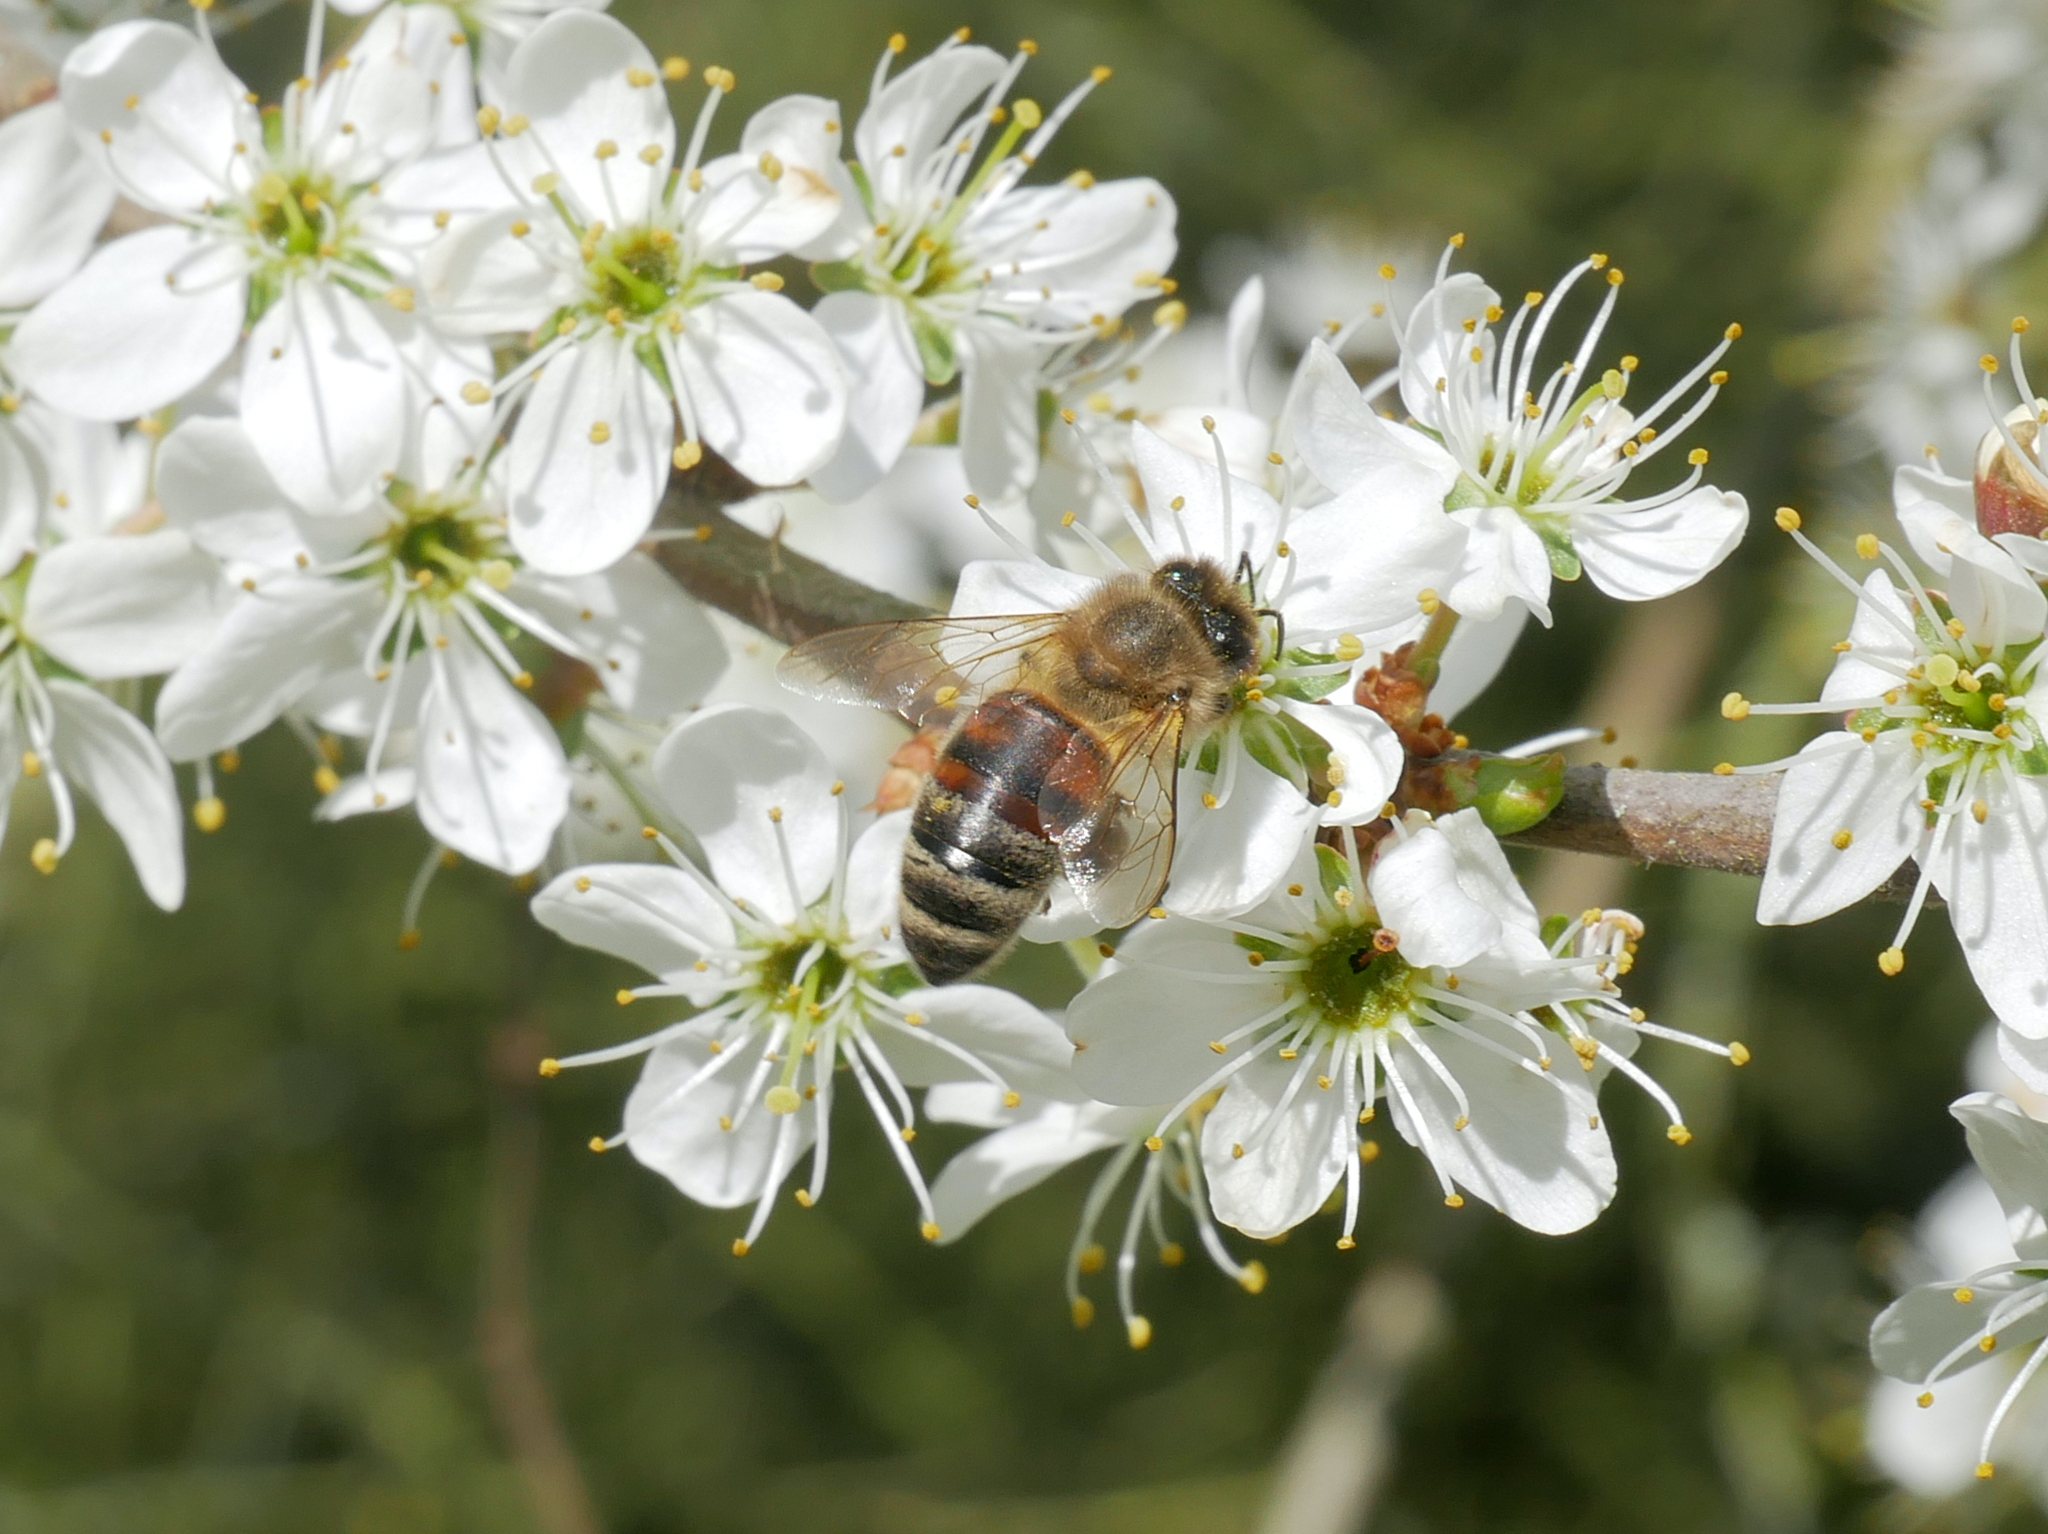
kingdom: Animalia
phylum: Arthropoda
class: Insecta
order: Hymenoptera
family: Apidae
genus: Apis
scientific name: Apis mellifera
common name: Honey bee
